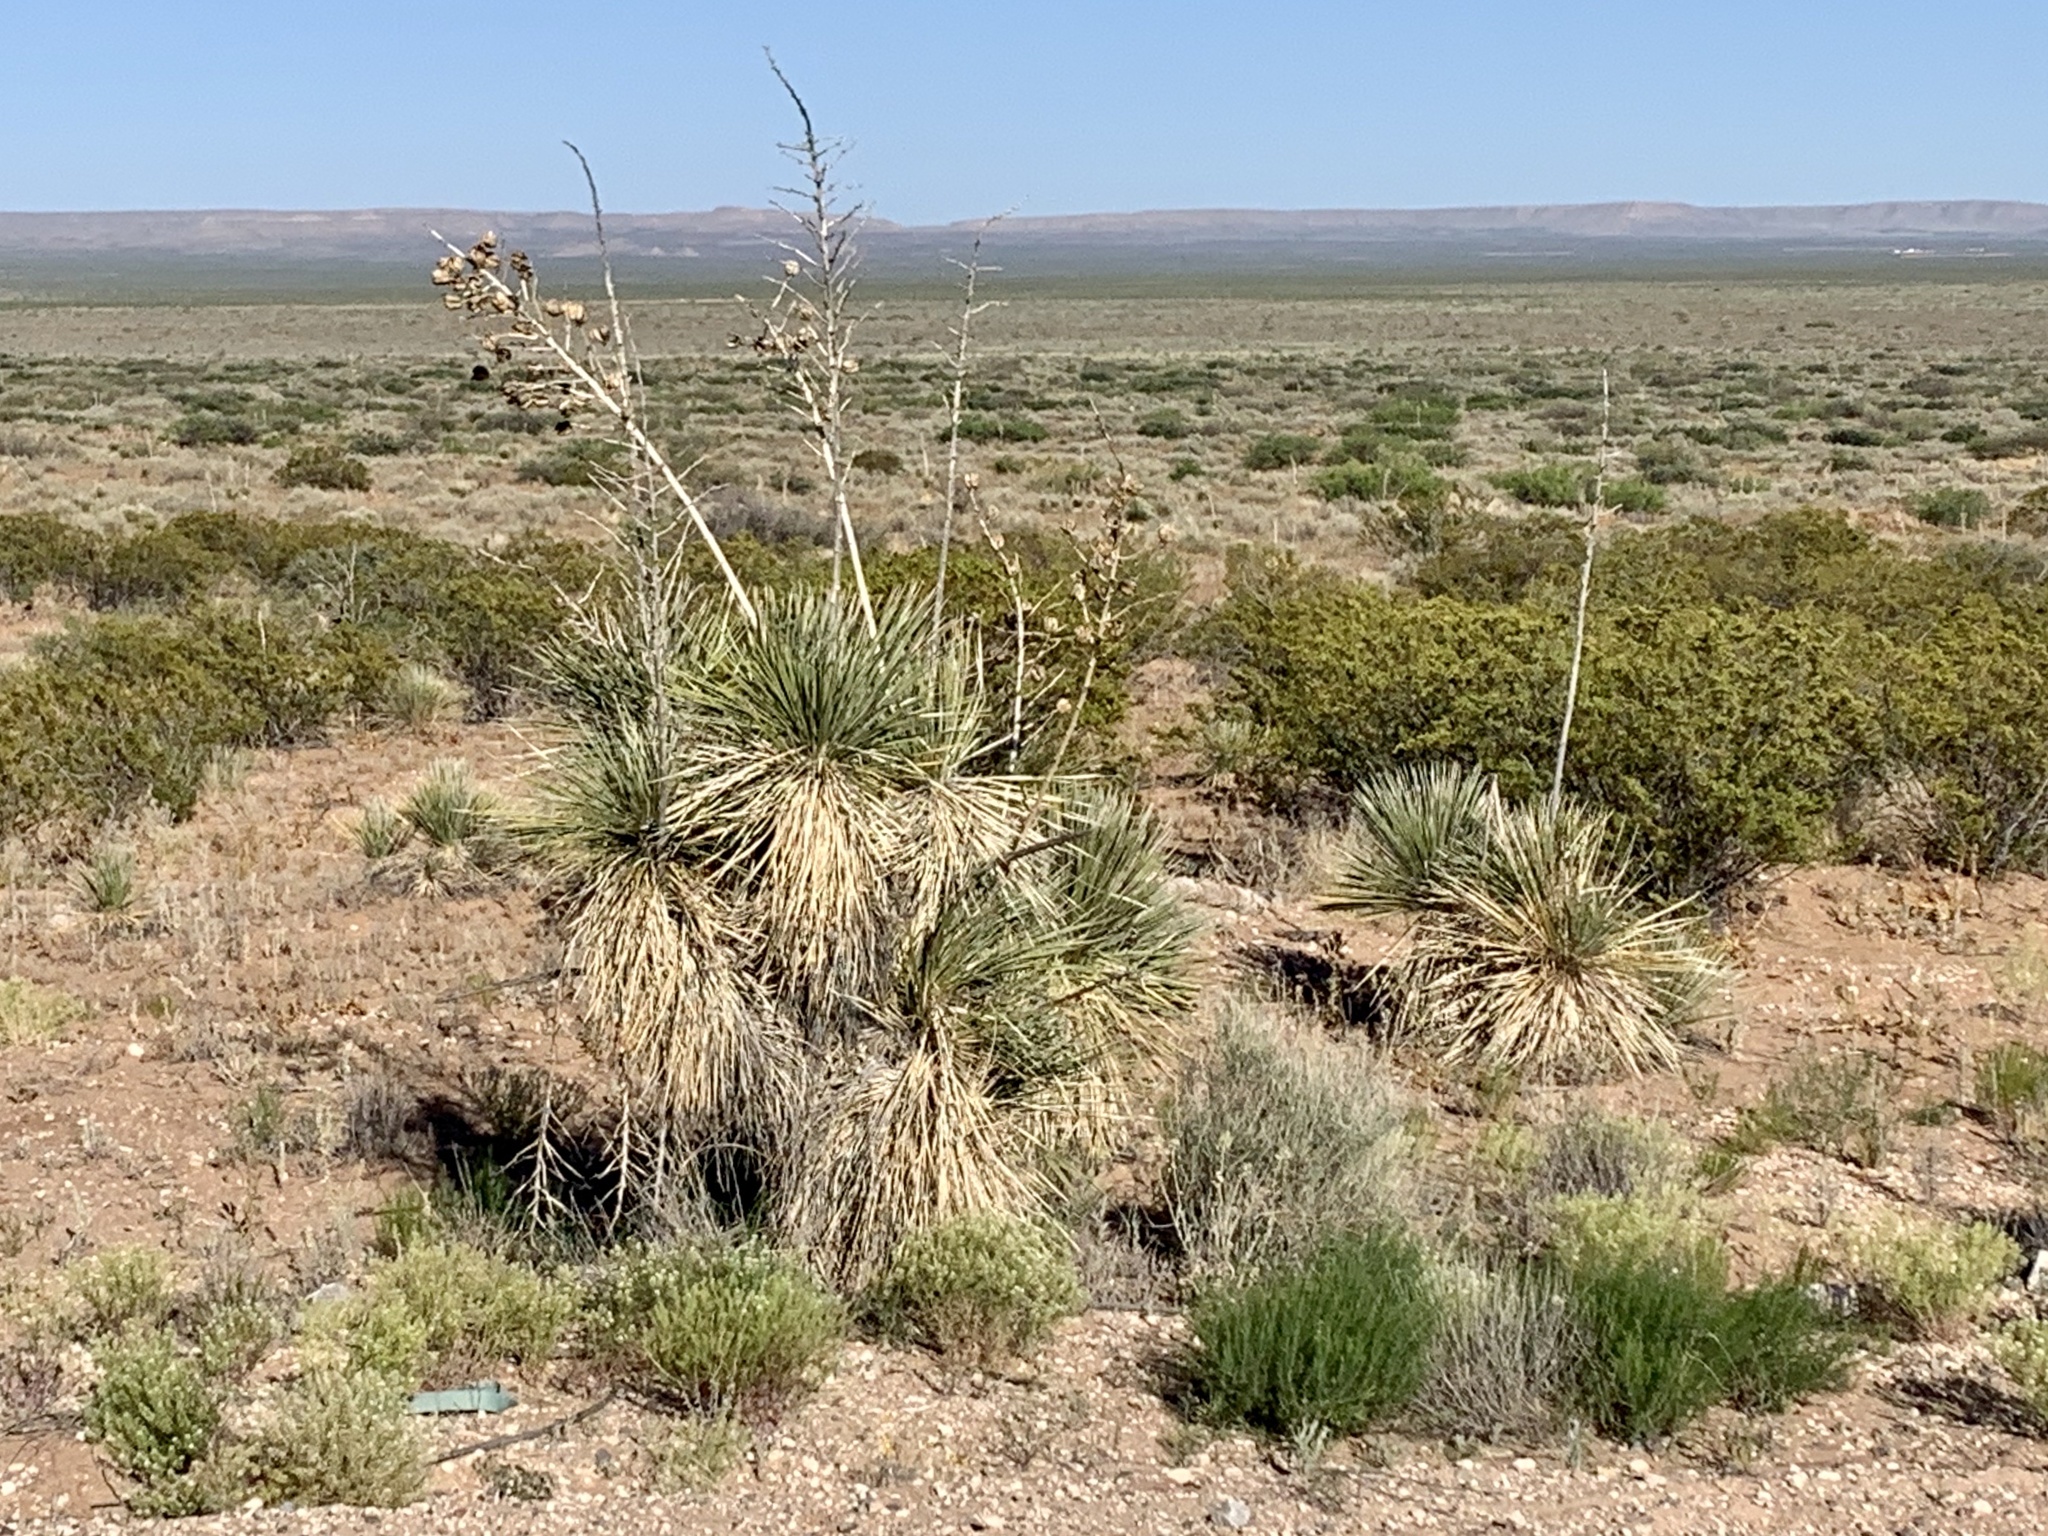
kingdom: Plantae
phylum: Tracheophyta
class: Liliopsida
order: Asparagales
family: Asparagaceae
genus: Yucca
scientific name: Yucca elata
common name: Palmella
